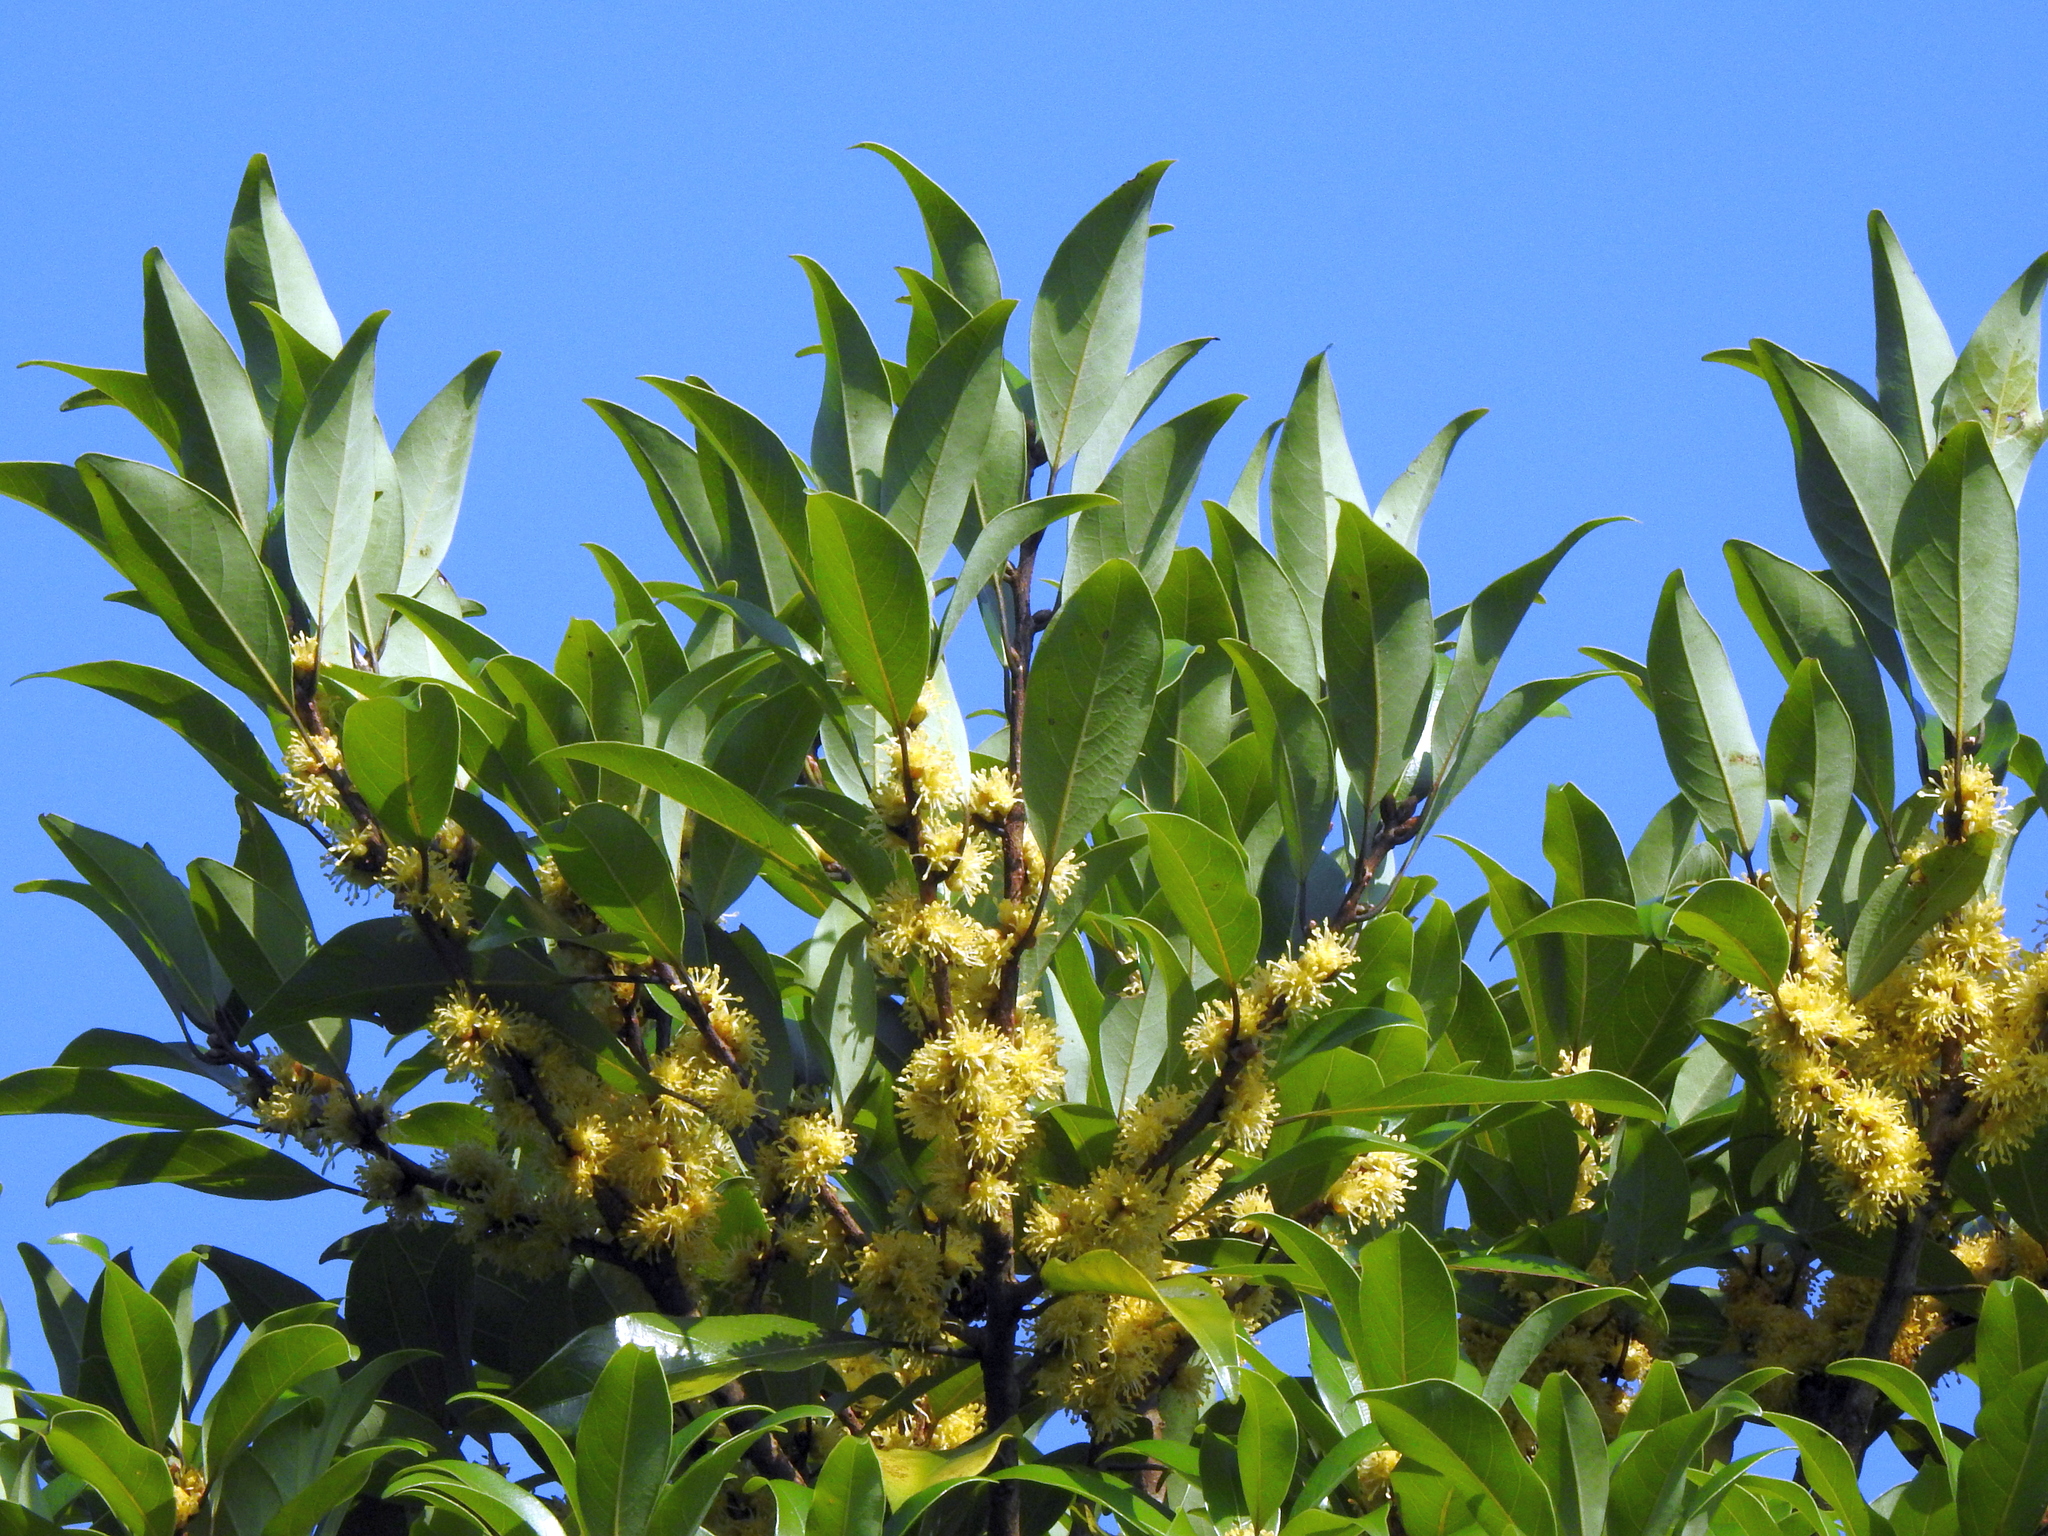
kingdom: Plantae
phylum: Tracheophyta
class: Magnoliopsida
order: Laurales
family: Lauraceae
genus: Litsea
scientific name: Litsea coreana
